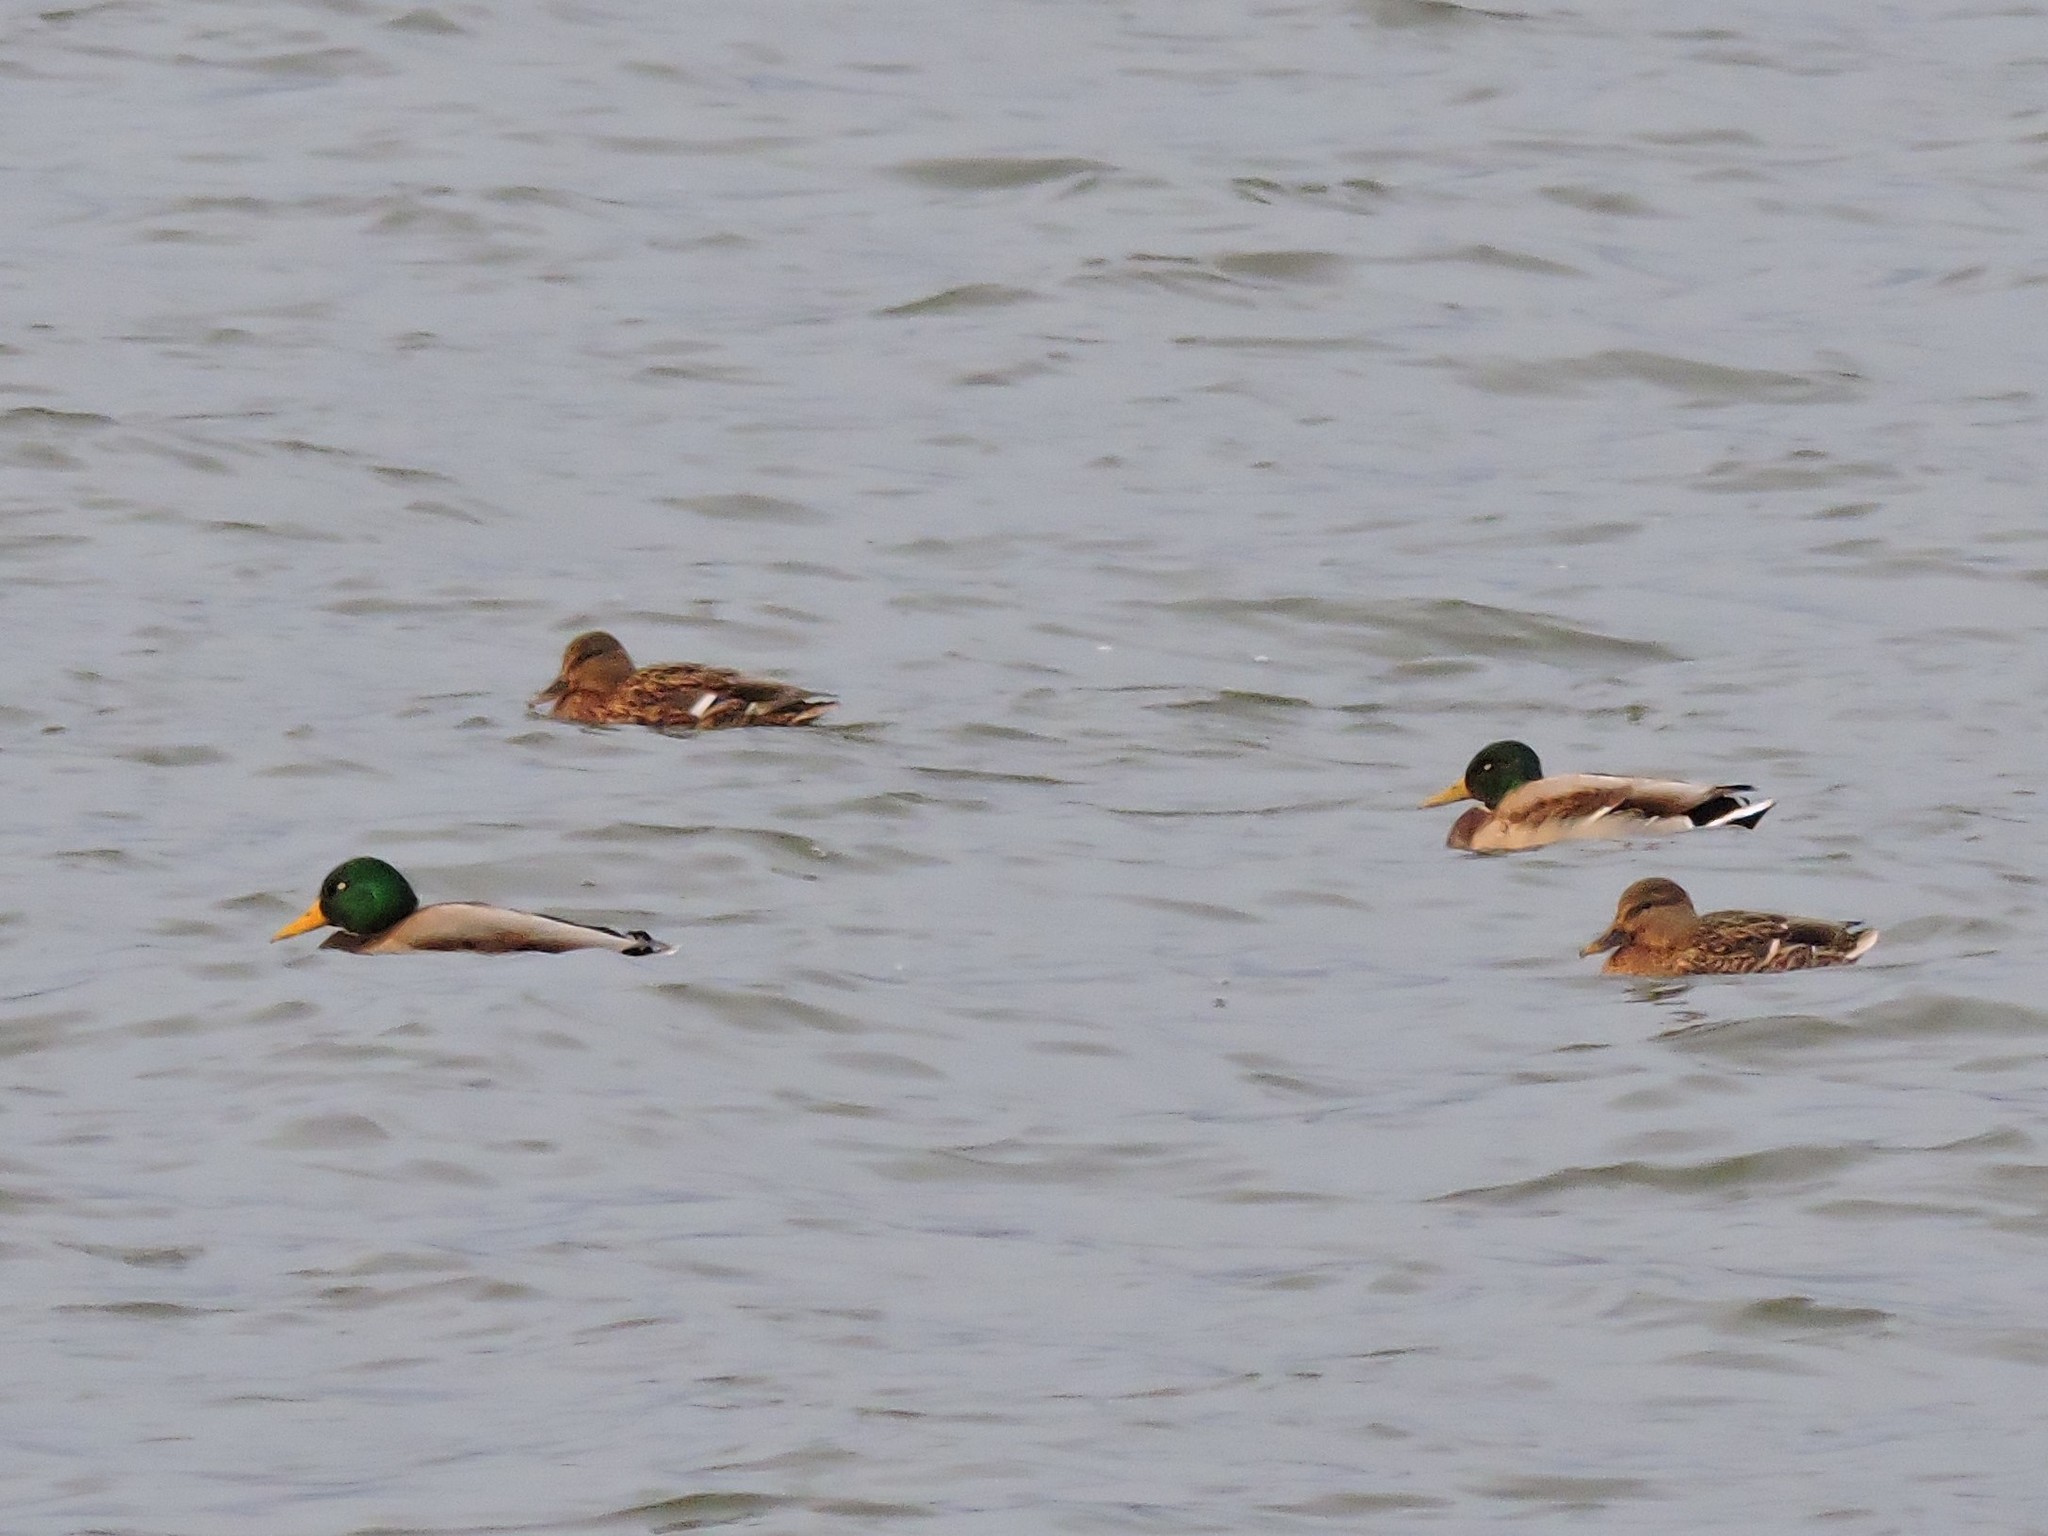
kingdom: Animalia
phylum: Chordata
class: Aves
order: Anseriformes
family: Anatidae
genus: Anas
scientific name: Anas platyrhynchos
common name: Mallard
